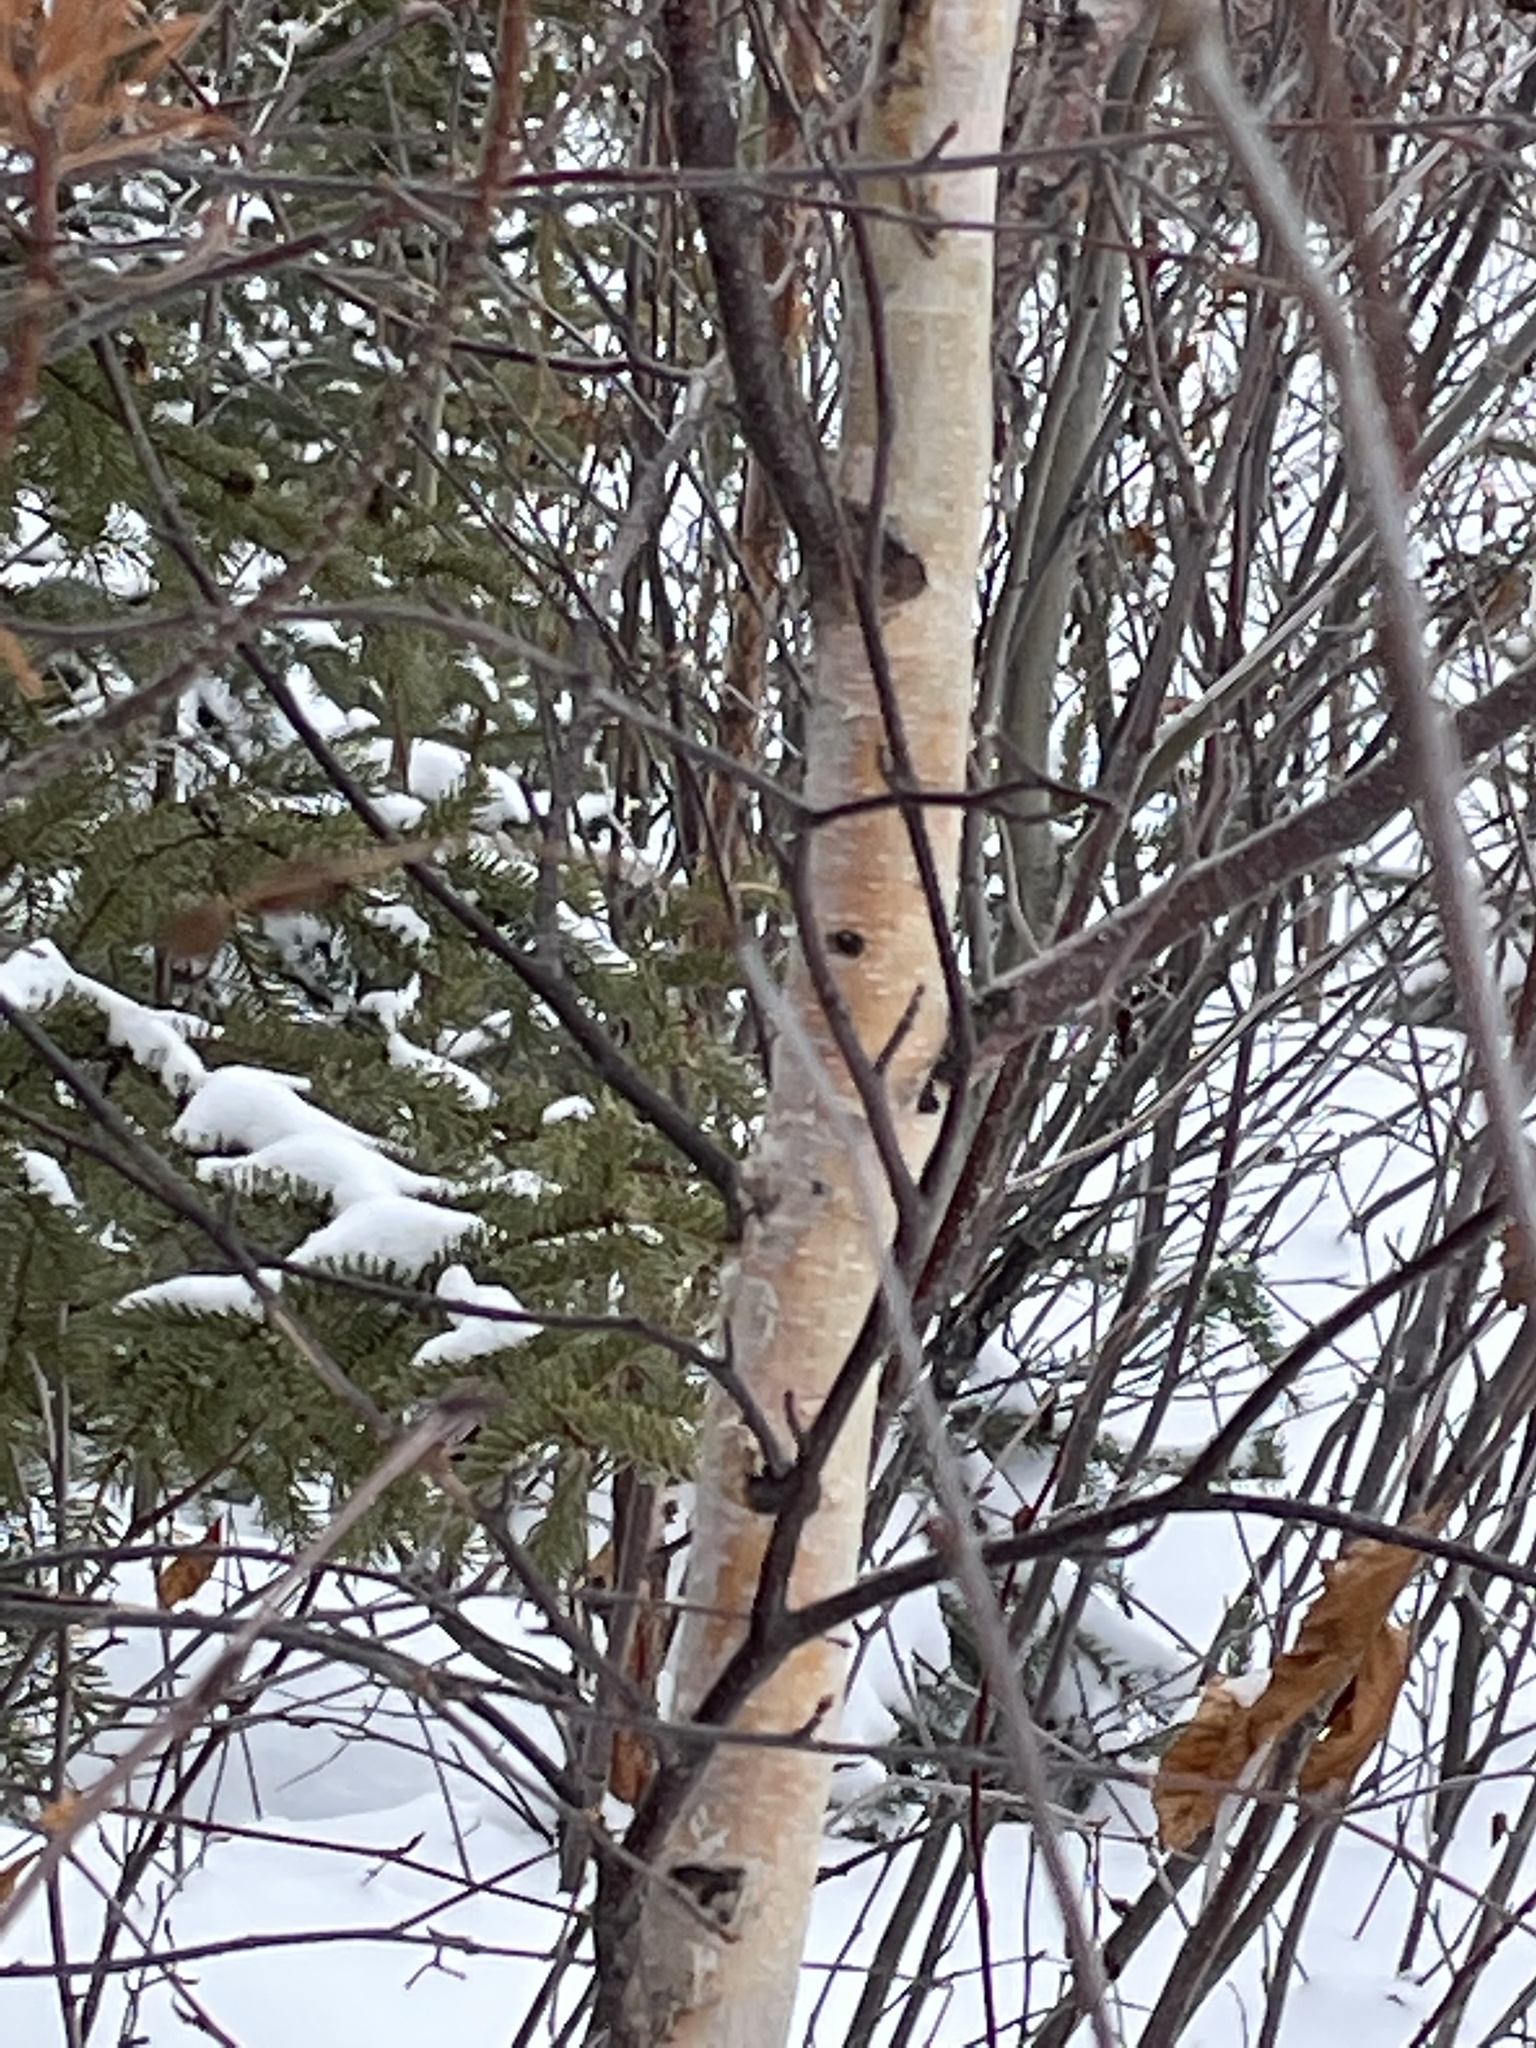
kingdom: Plantae
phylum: Tracheophyta
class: Magnoliopsida
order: Fagales
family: Betulaceae
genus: Betula
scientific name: Betula papyrifera
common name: Paper birch
